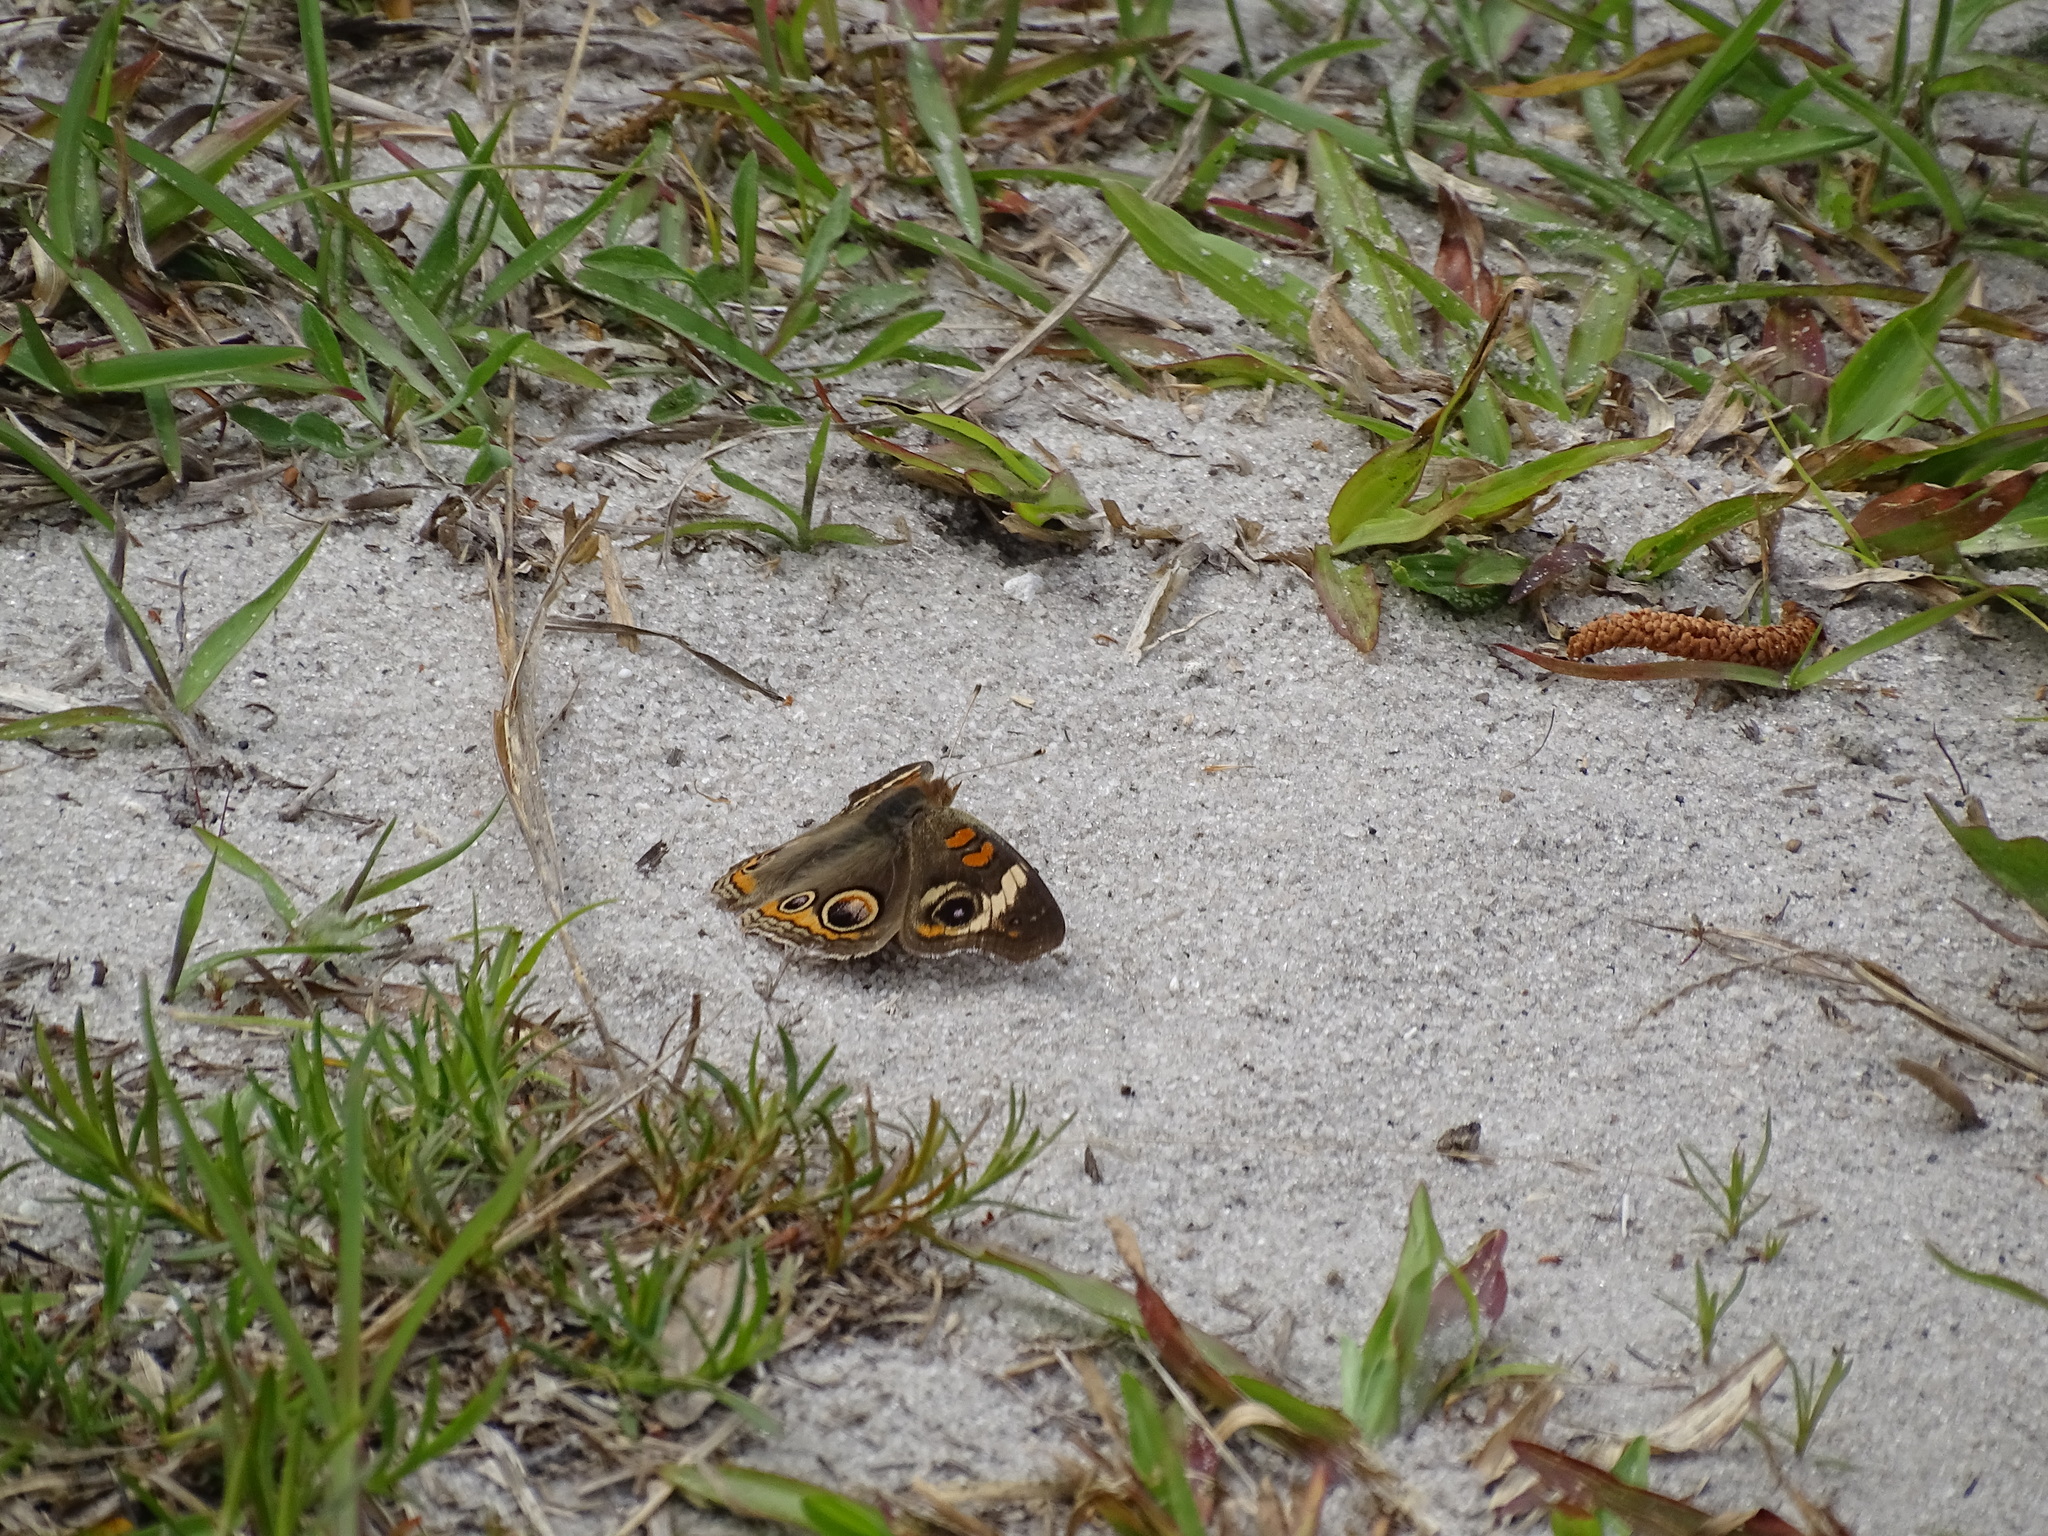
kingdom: Animalia
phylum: Arthropoda
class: Insecta
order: Lepidoptera
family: Nymphalidae
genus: Junonia
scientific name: Junonia coenia
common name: Common buckeye
